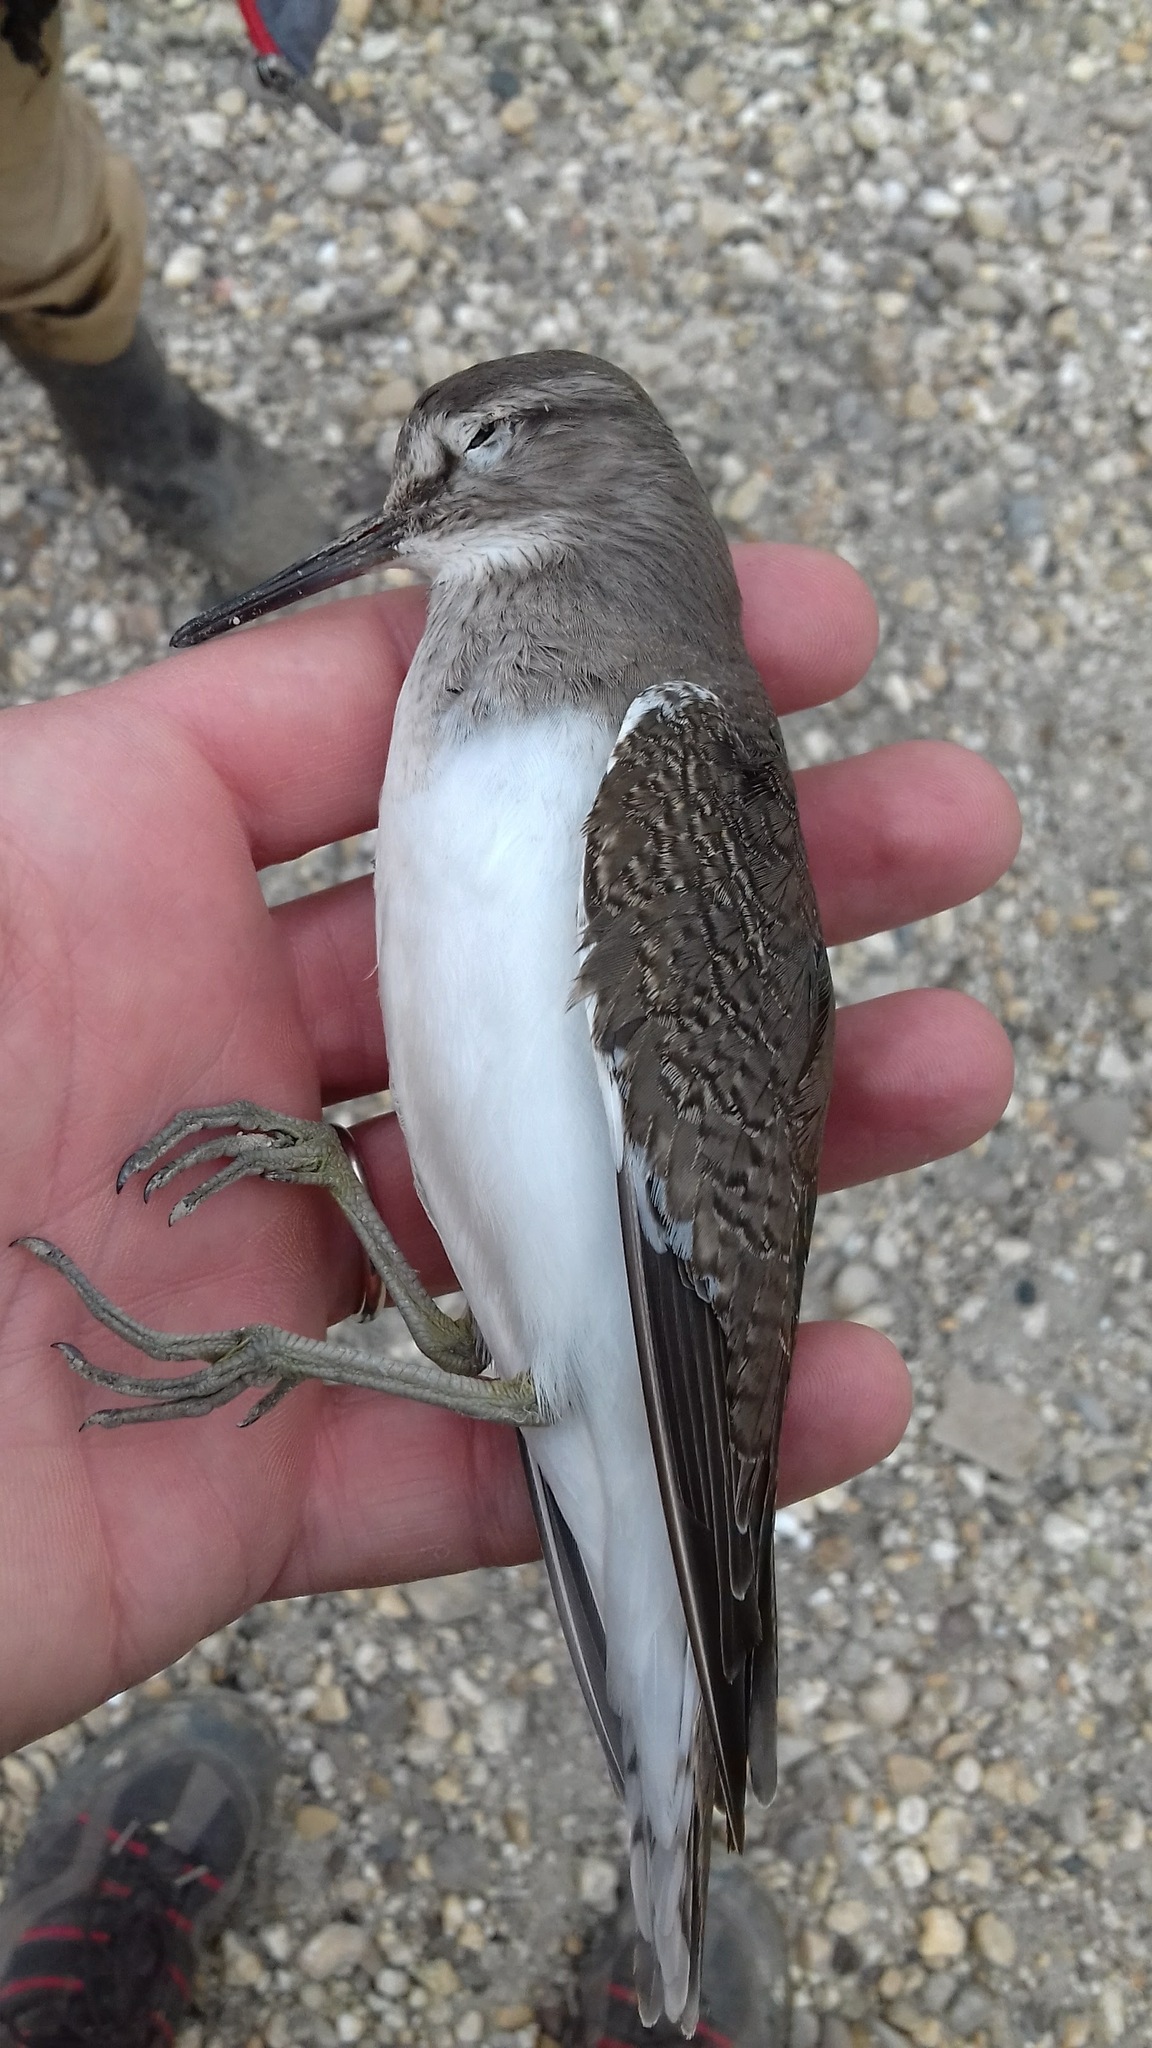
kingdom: Animalia
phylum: Chordata
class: Aves
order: Charadriiformes
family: Scolopacidae
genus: Actitis
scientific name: Actitis hypoleucos
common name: Common sandpiper
